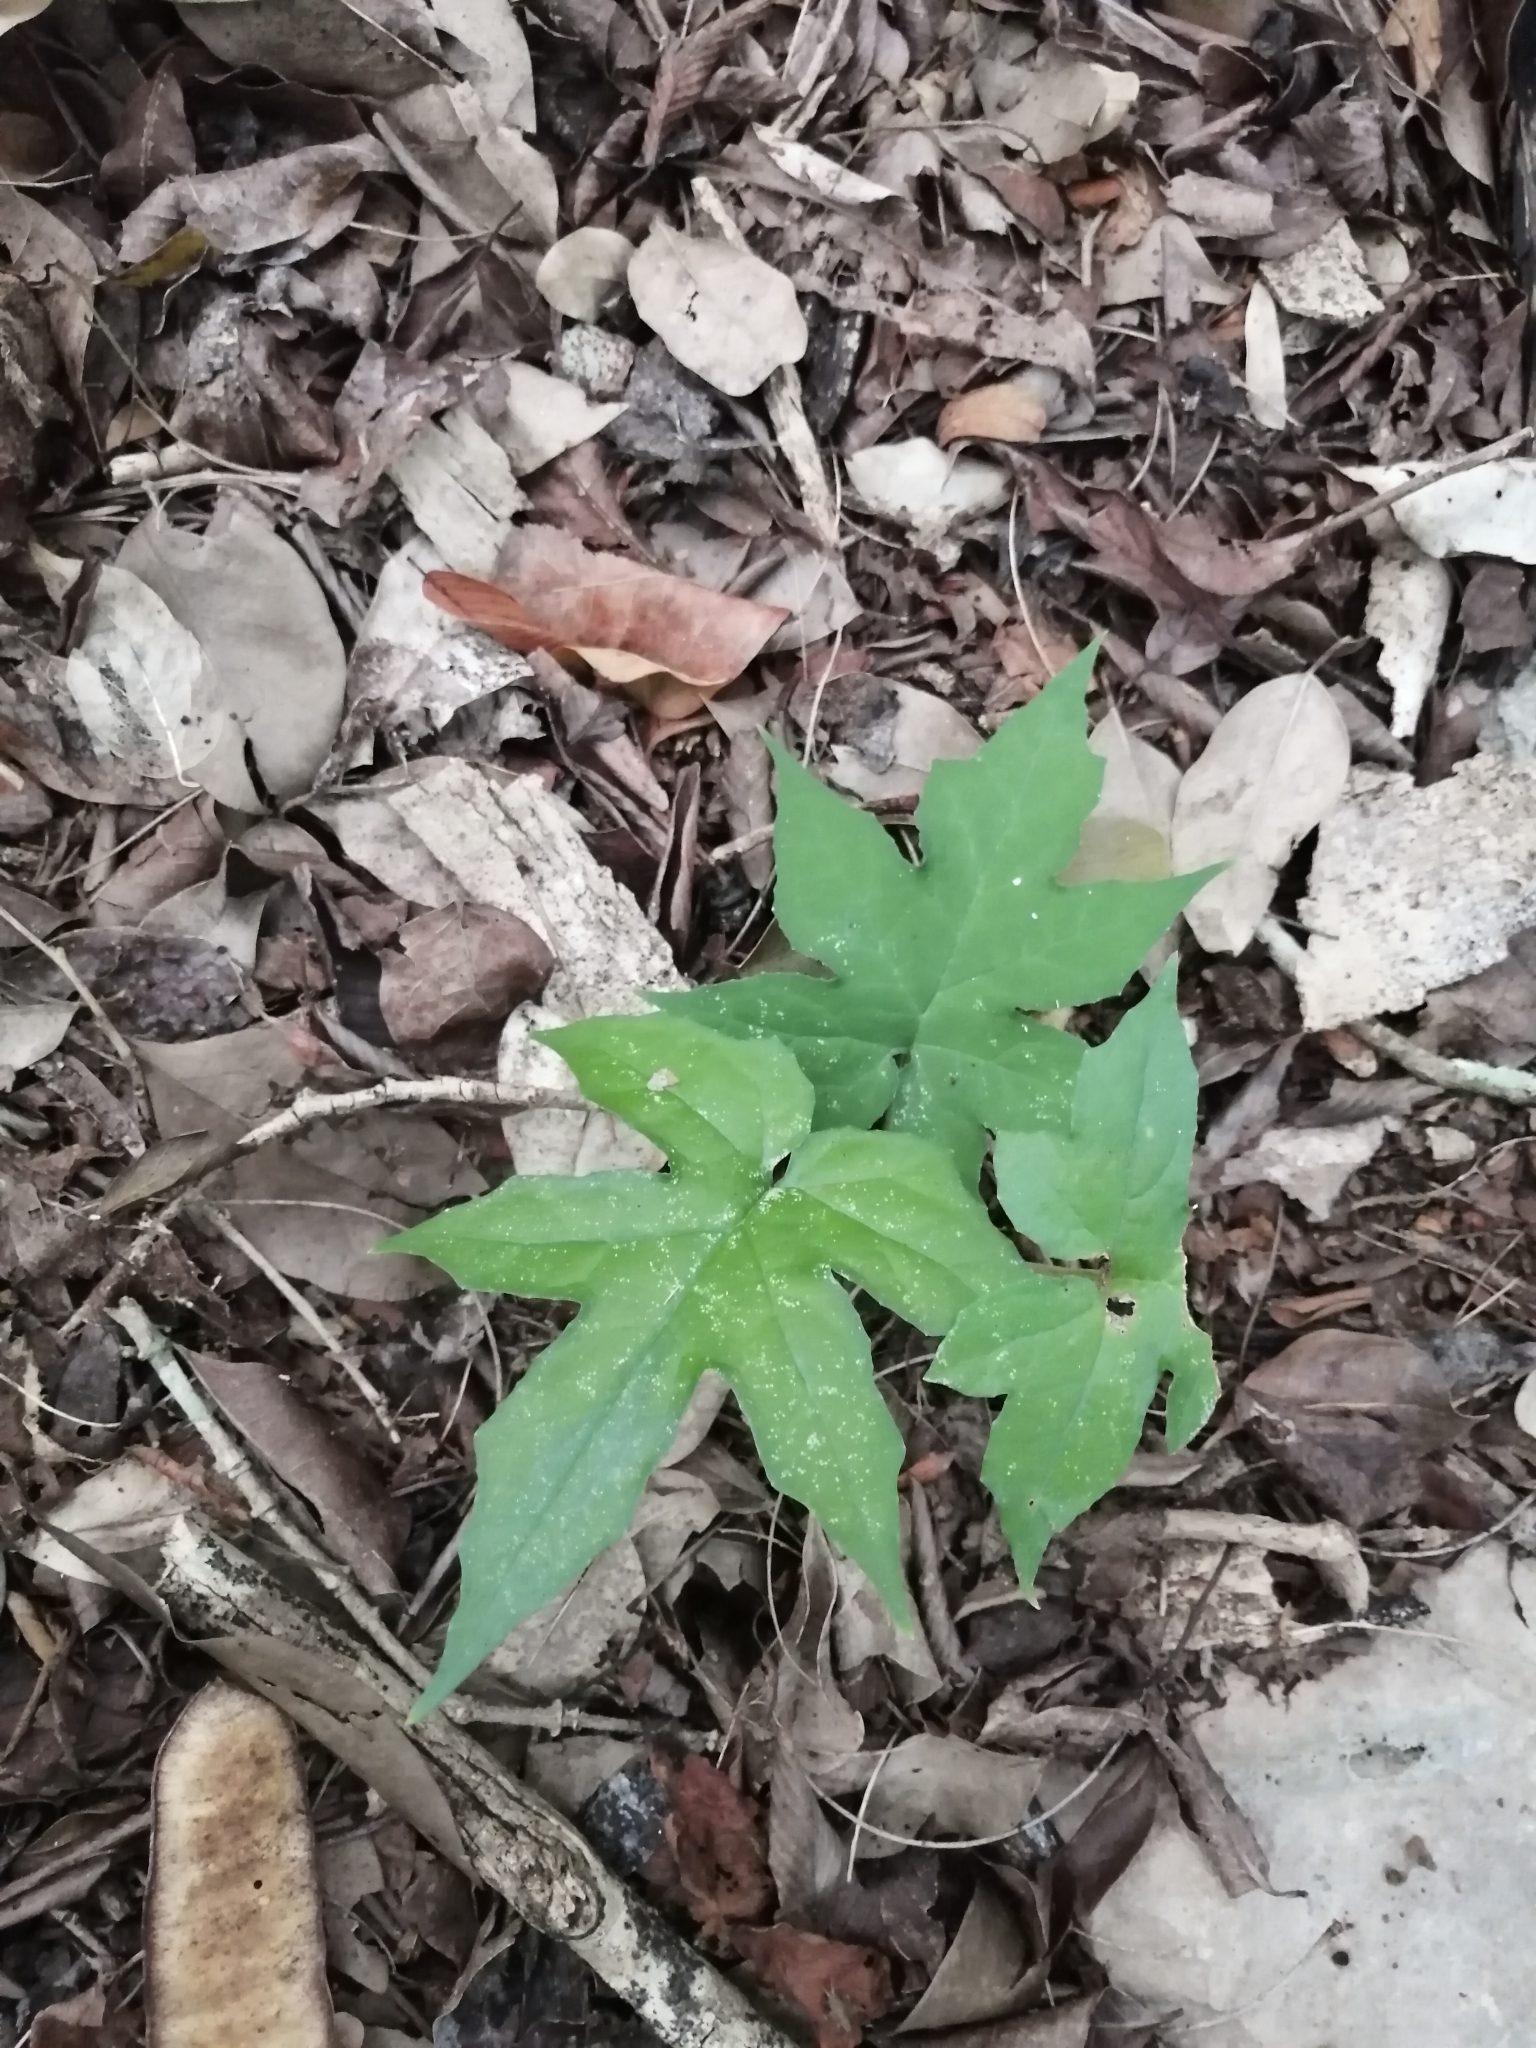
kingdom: Plantae
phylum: Tracheophyta
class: Magnoliopsida
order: Malpighiales
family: Euphorbiaceae
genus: Cnidoscolus
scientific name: Cnidoscolus souzae
